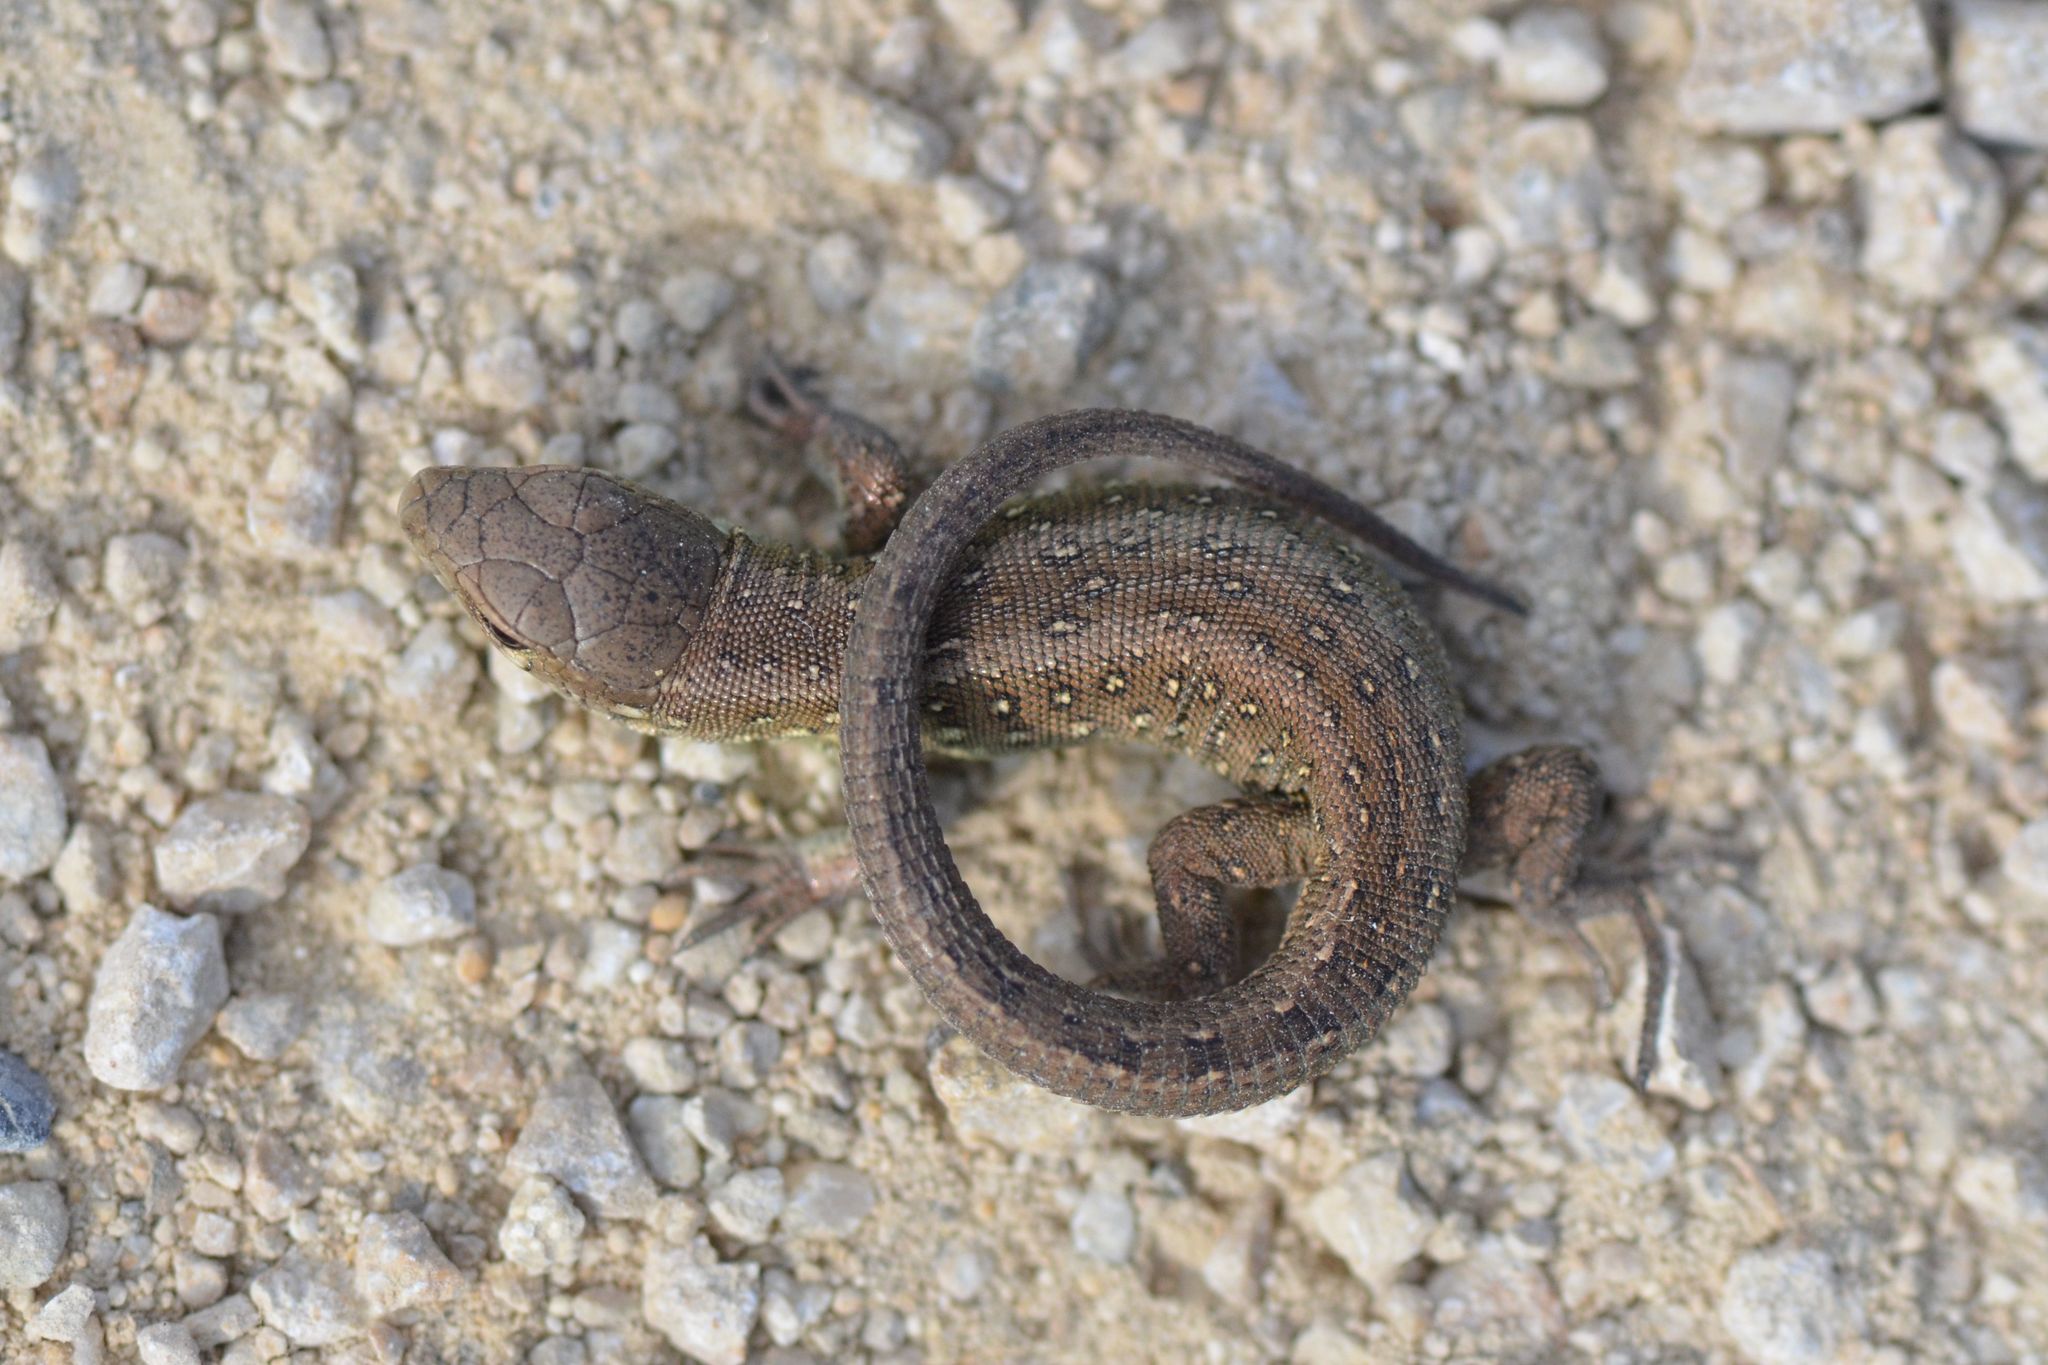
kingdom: Animalia
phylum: Chordata
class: Squamata
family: Lacertidae
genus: Lacerta
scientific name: Lacerta agilis
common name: Sand lizard
